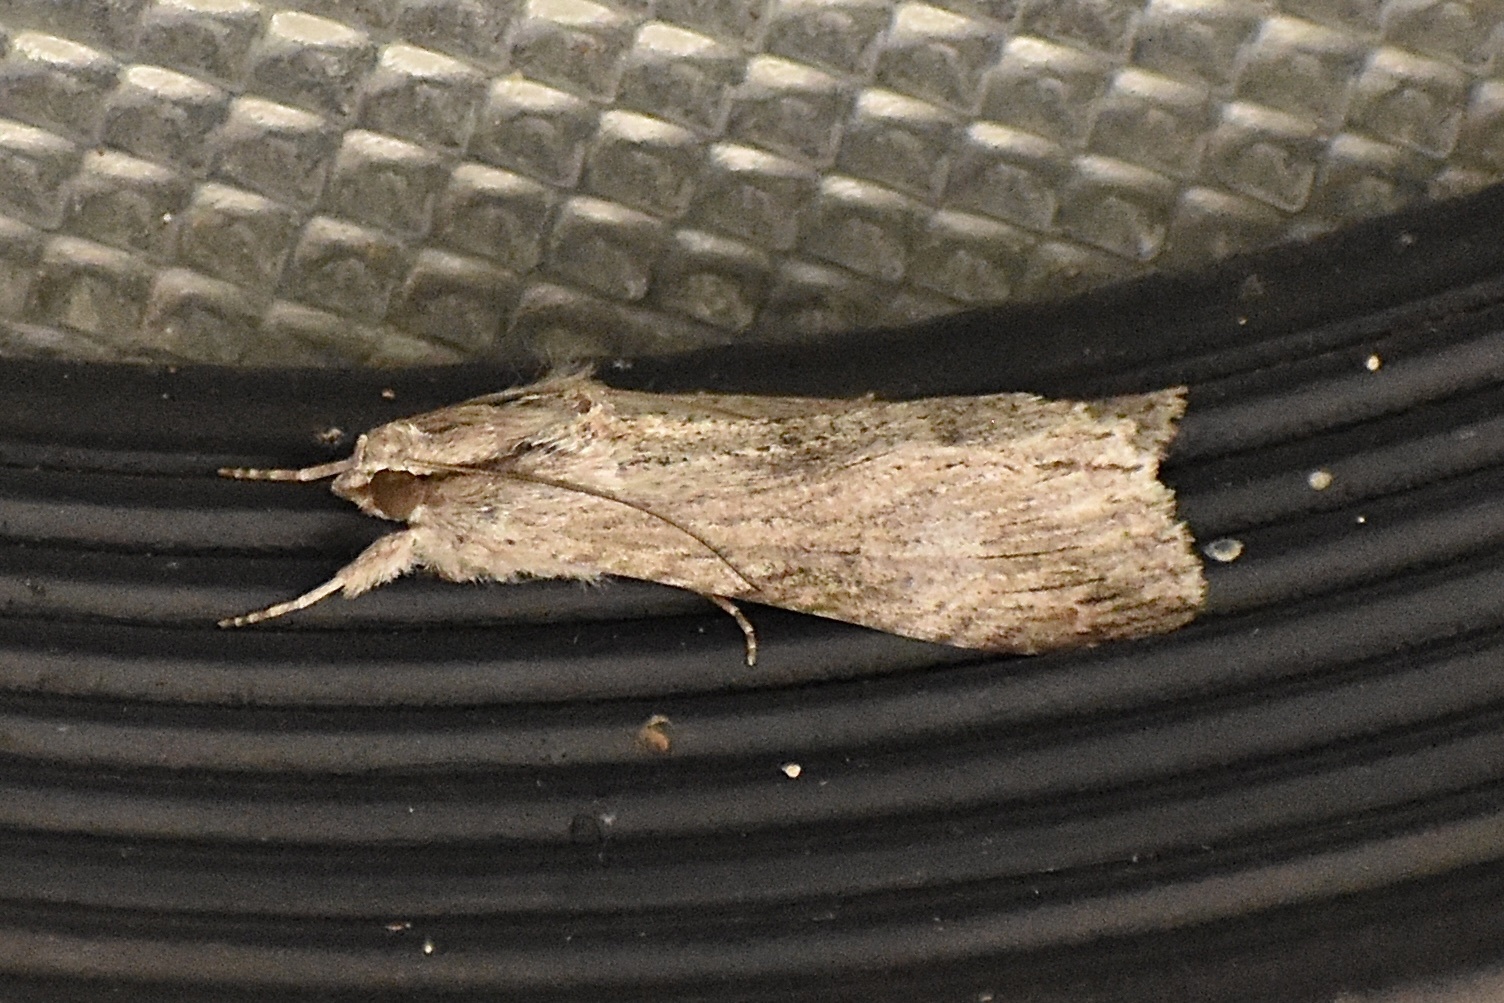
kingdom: Animalia
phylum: Arthropoda
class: Insecta
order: Lepidoptera
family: Erebidae
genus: Melipotis
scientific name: Melipotis acontioides
